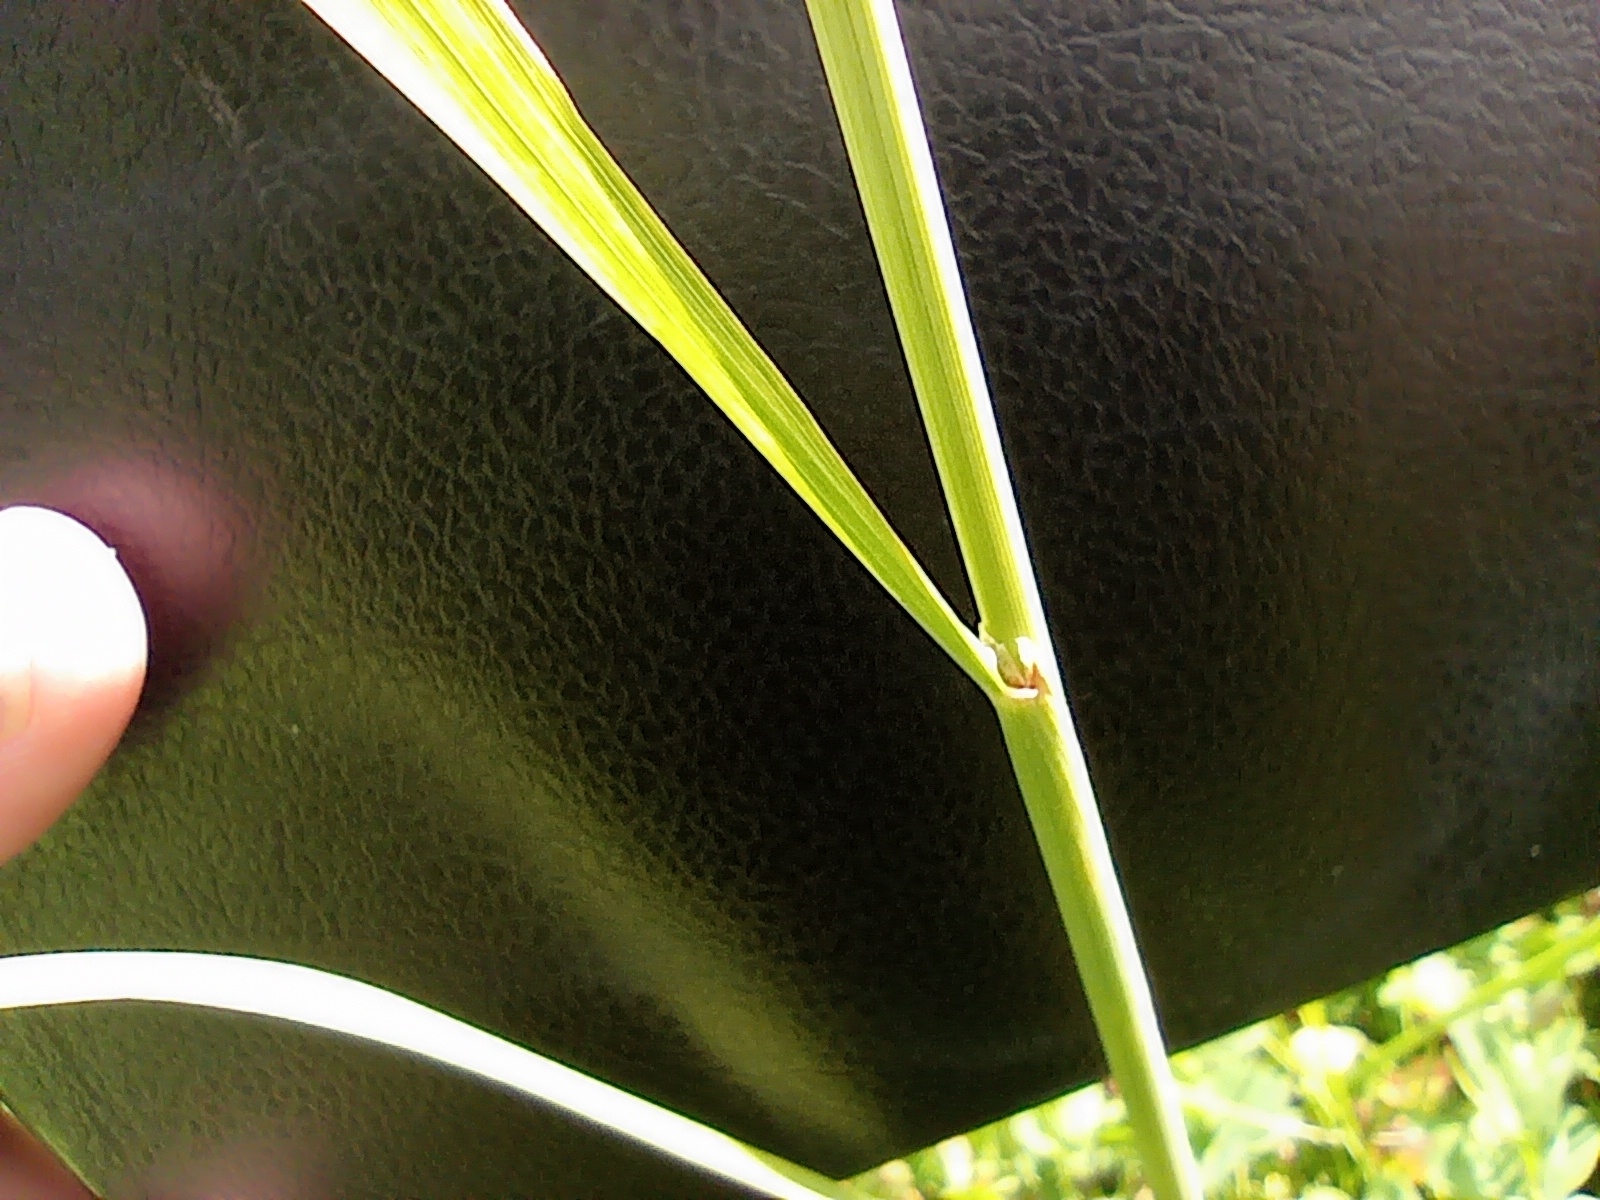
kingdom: Plantae
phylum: Tracheophyta
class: Liliopsida
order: Poales
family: Poaceae
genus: Calamagrostis
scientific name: Calamagrostis epigejos
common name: Wood small-reed
